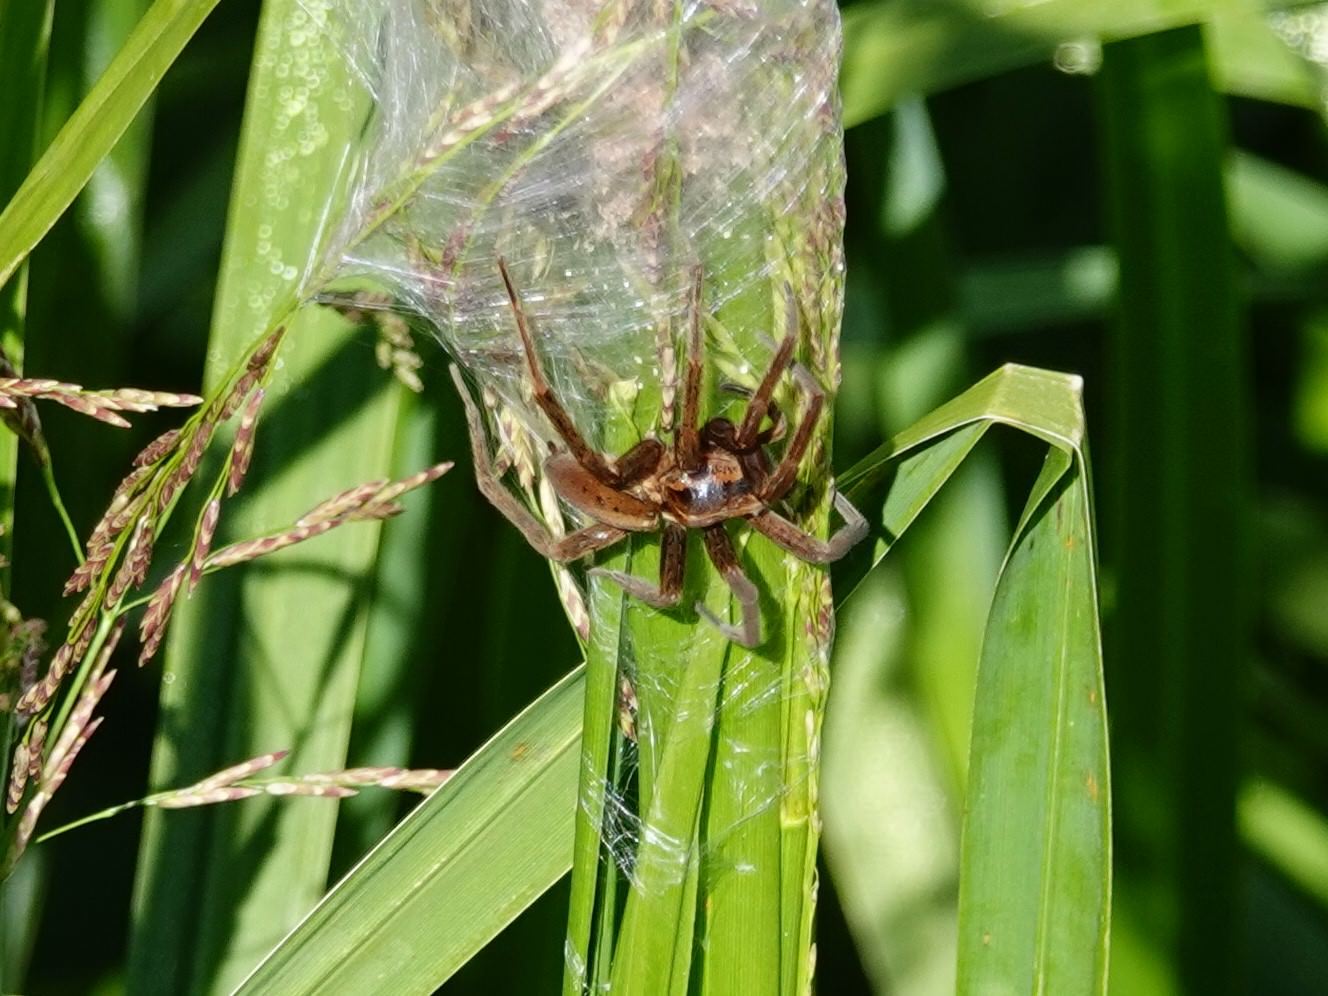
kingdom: Animalia
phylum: Arthropoda
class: Arachnida
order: Araneae
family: Pisauridae
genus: Dolomedes
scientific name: Dolomedes minor
